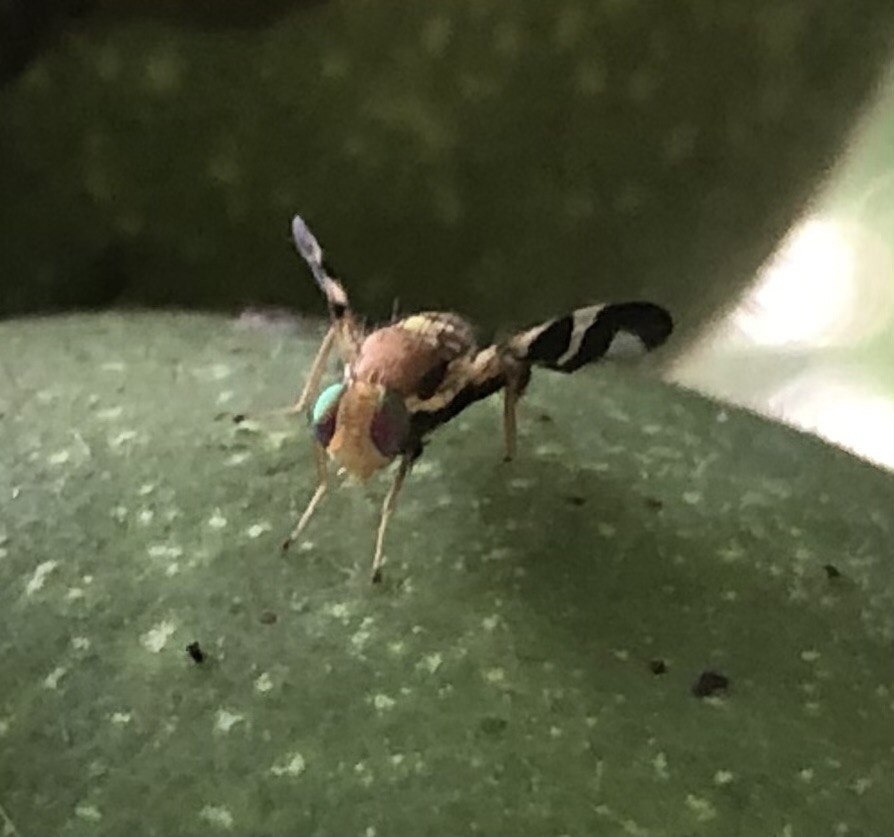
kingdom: Animalia
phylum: Arthropoda
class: Insecta
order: Diptera
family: Tephritidae
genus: Rhagoletis
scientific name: Rhagoletis completa
